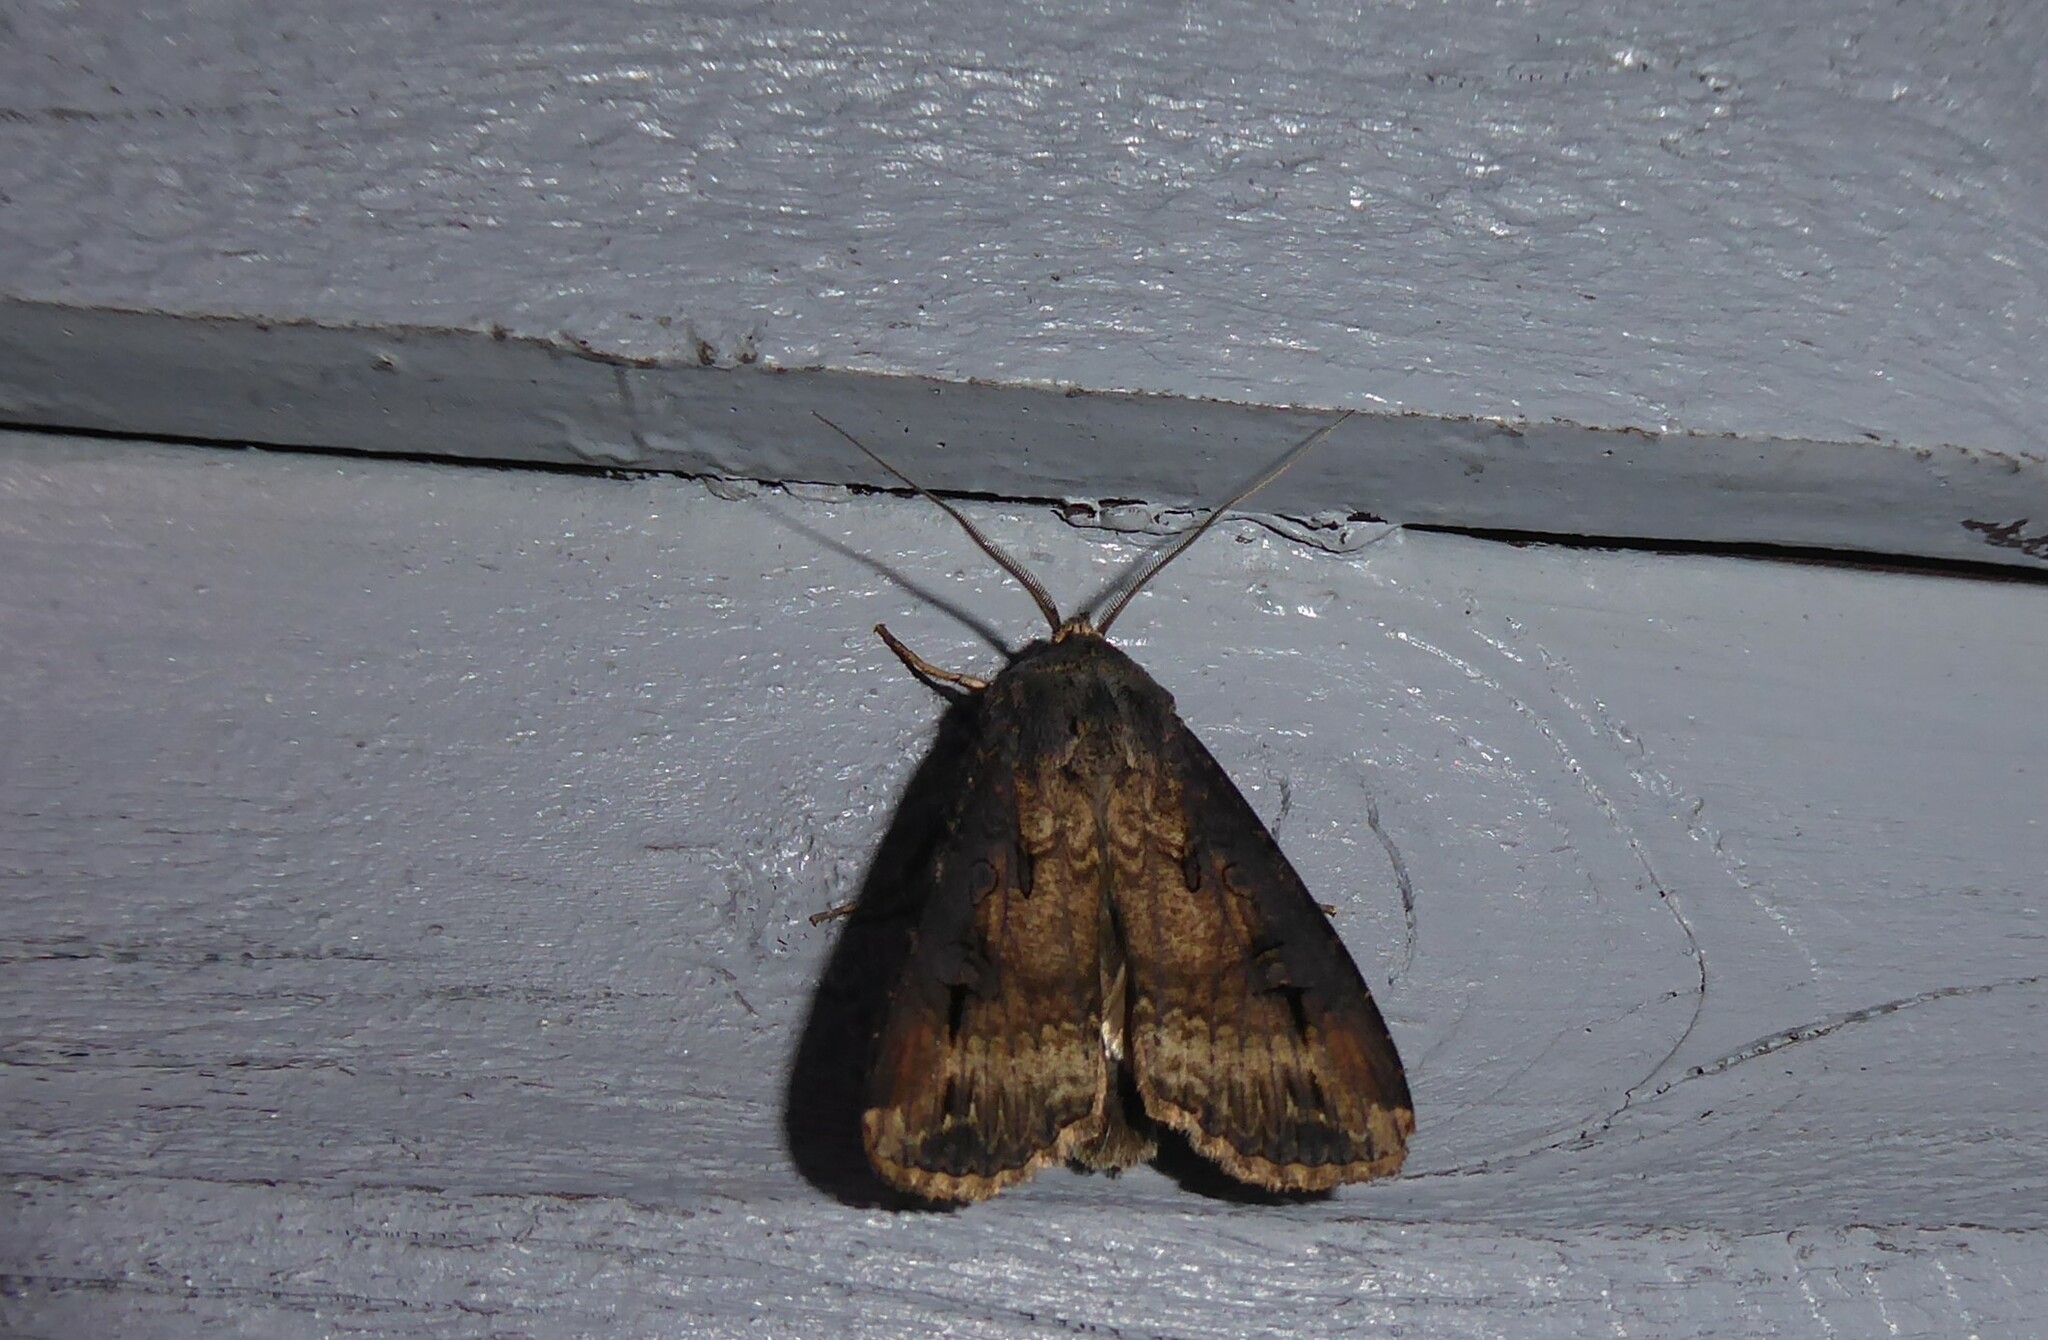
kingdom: Animalia
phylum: Arthropoda
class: Insecta
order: Lepidoptera
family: Noctuidae
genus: Agrotis
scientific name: Agrotis ipsilon
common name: Dark sword-grass
